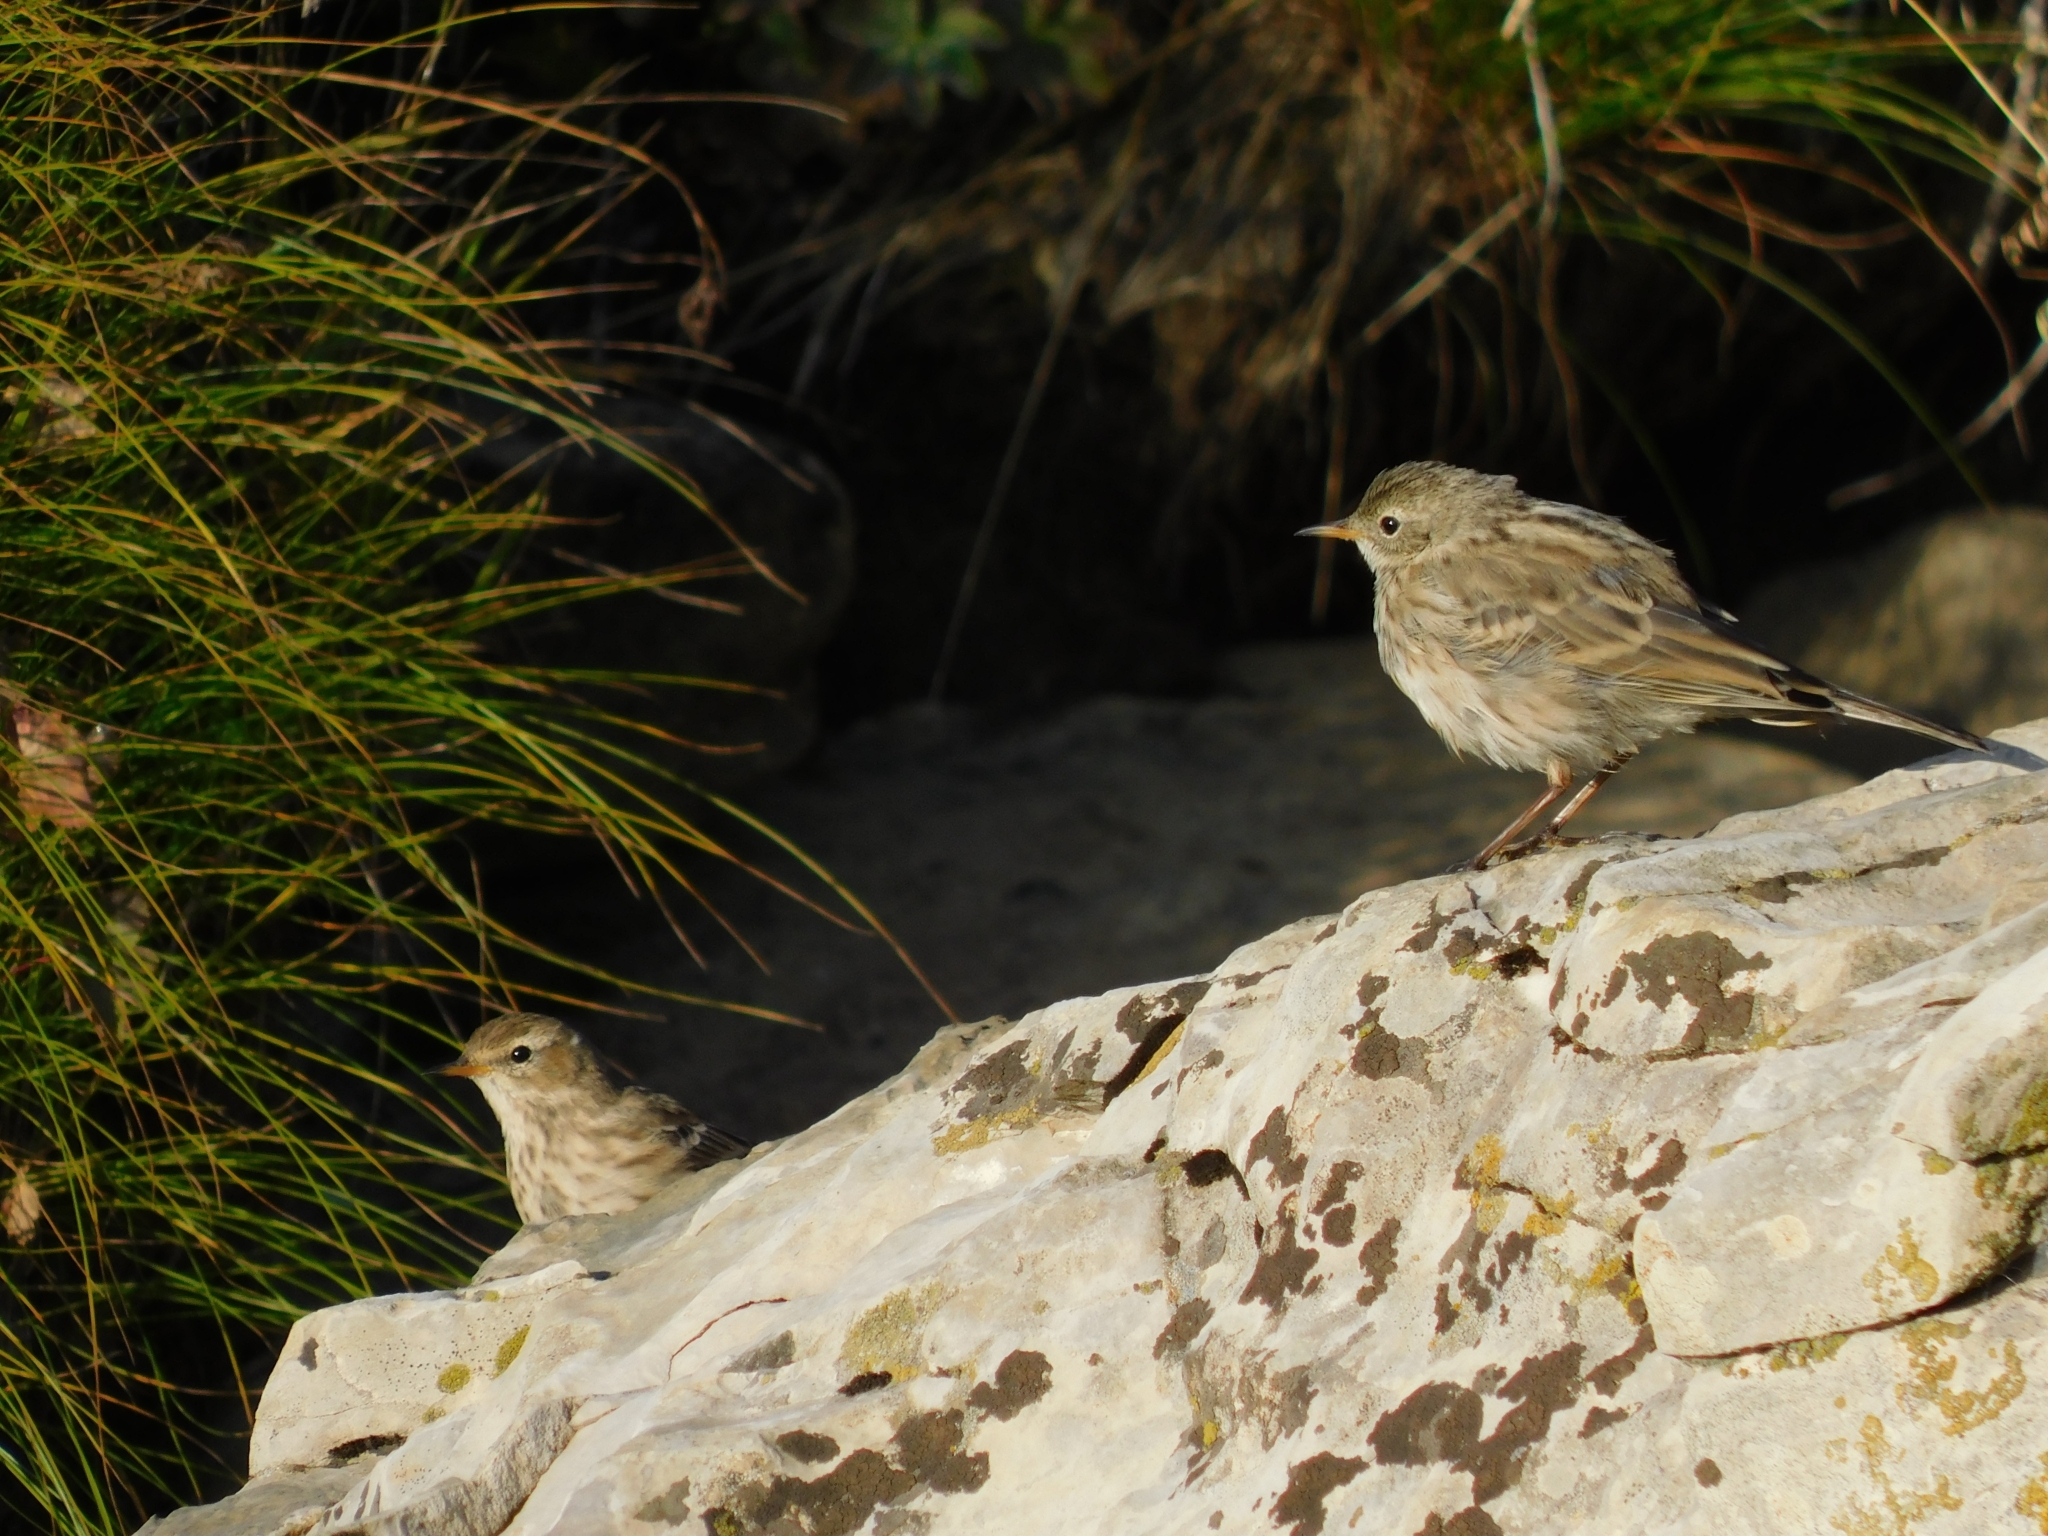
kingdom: Animalia
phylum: Chordata
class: Aves
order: Passeriformes
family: Motacillidae
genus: Anthus
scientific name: Anthus spinoletta
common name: Water pipit
